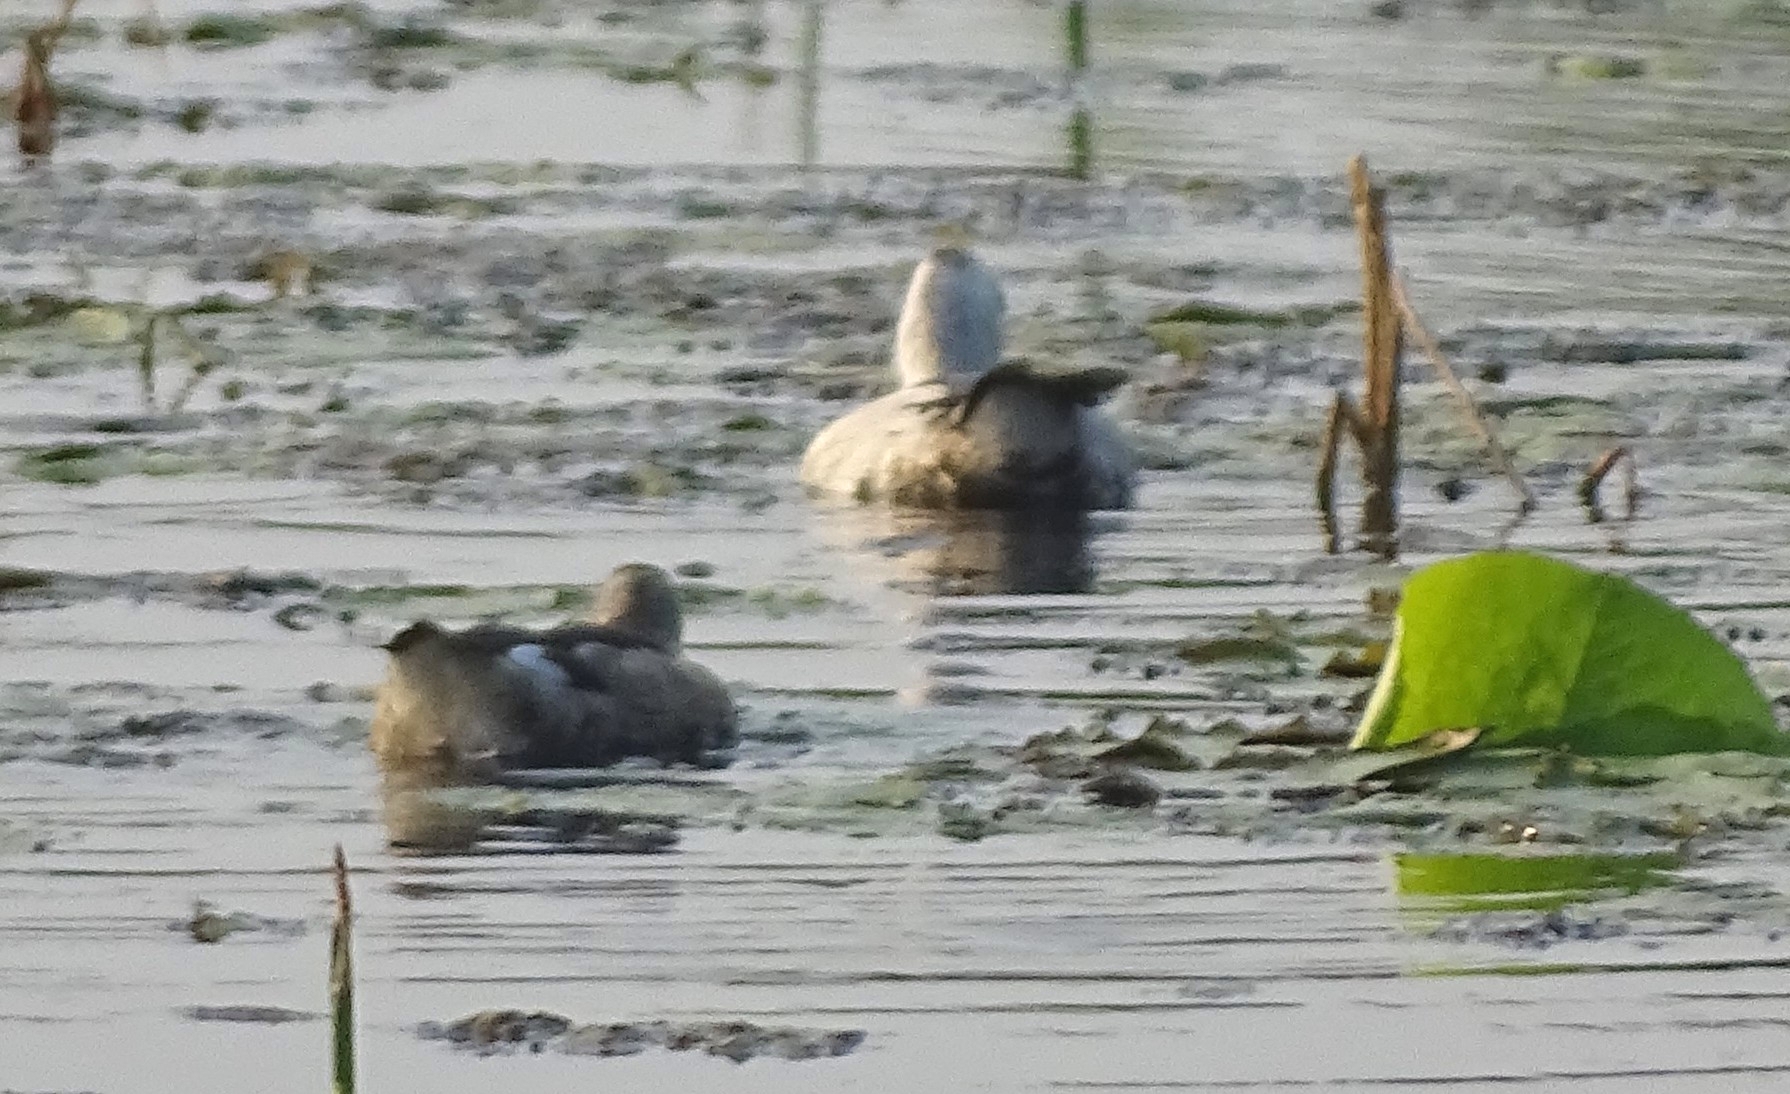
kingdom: Animalia
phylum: Chordata
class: Aves
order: Anseriformes
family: Anatidae
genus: Nettapus
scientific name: Nettapus coromandelianus
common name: Cotton pygmy-goose
